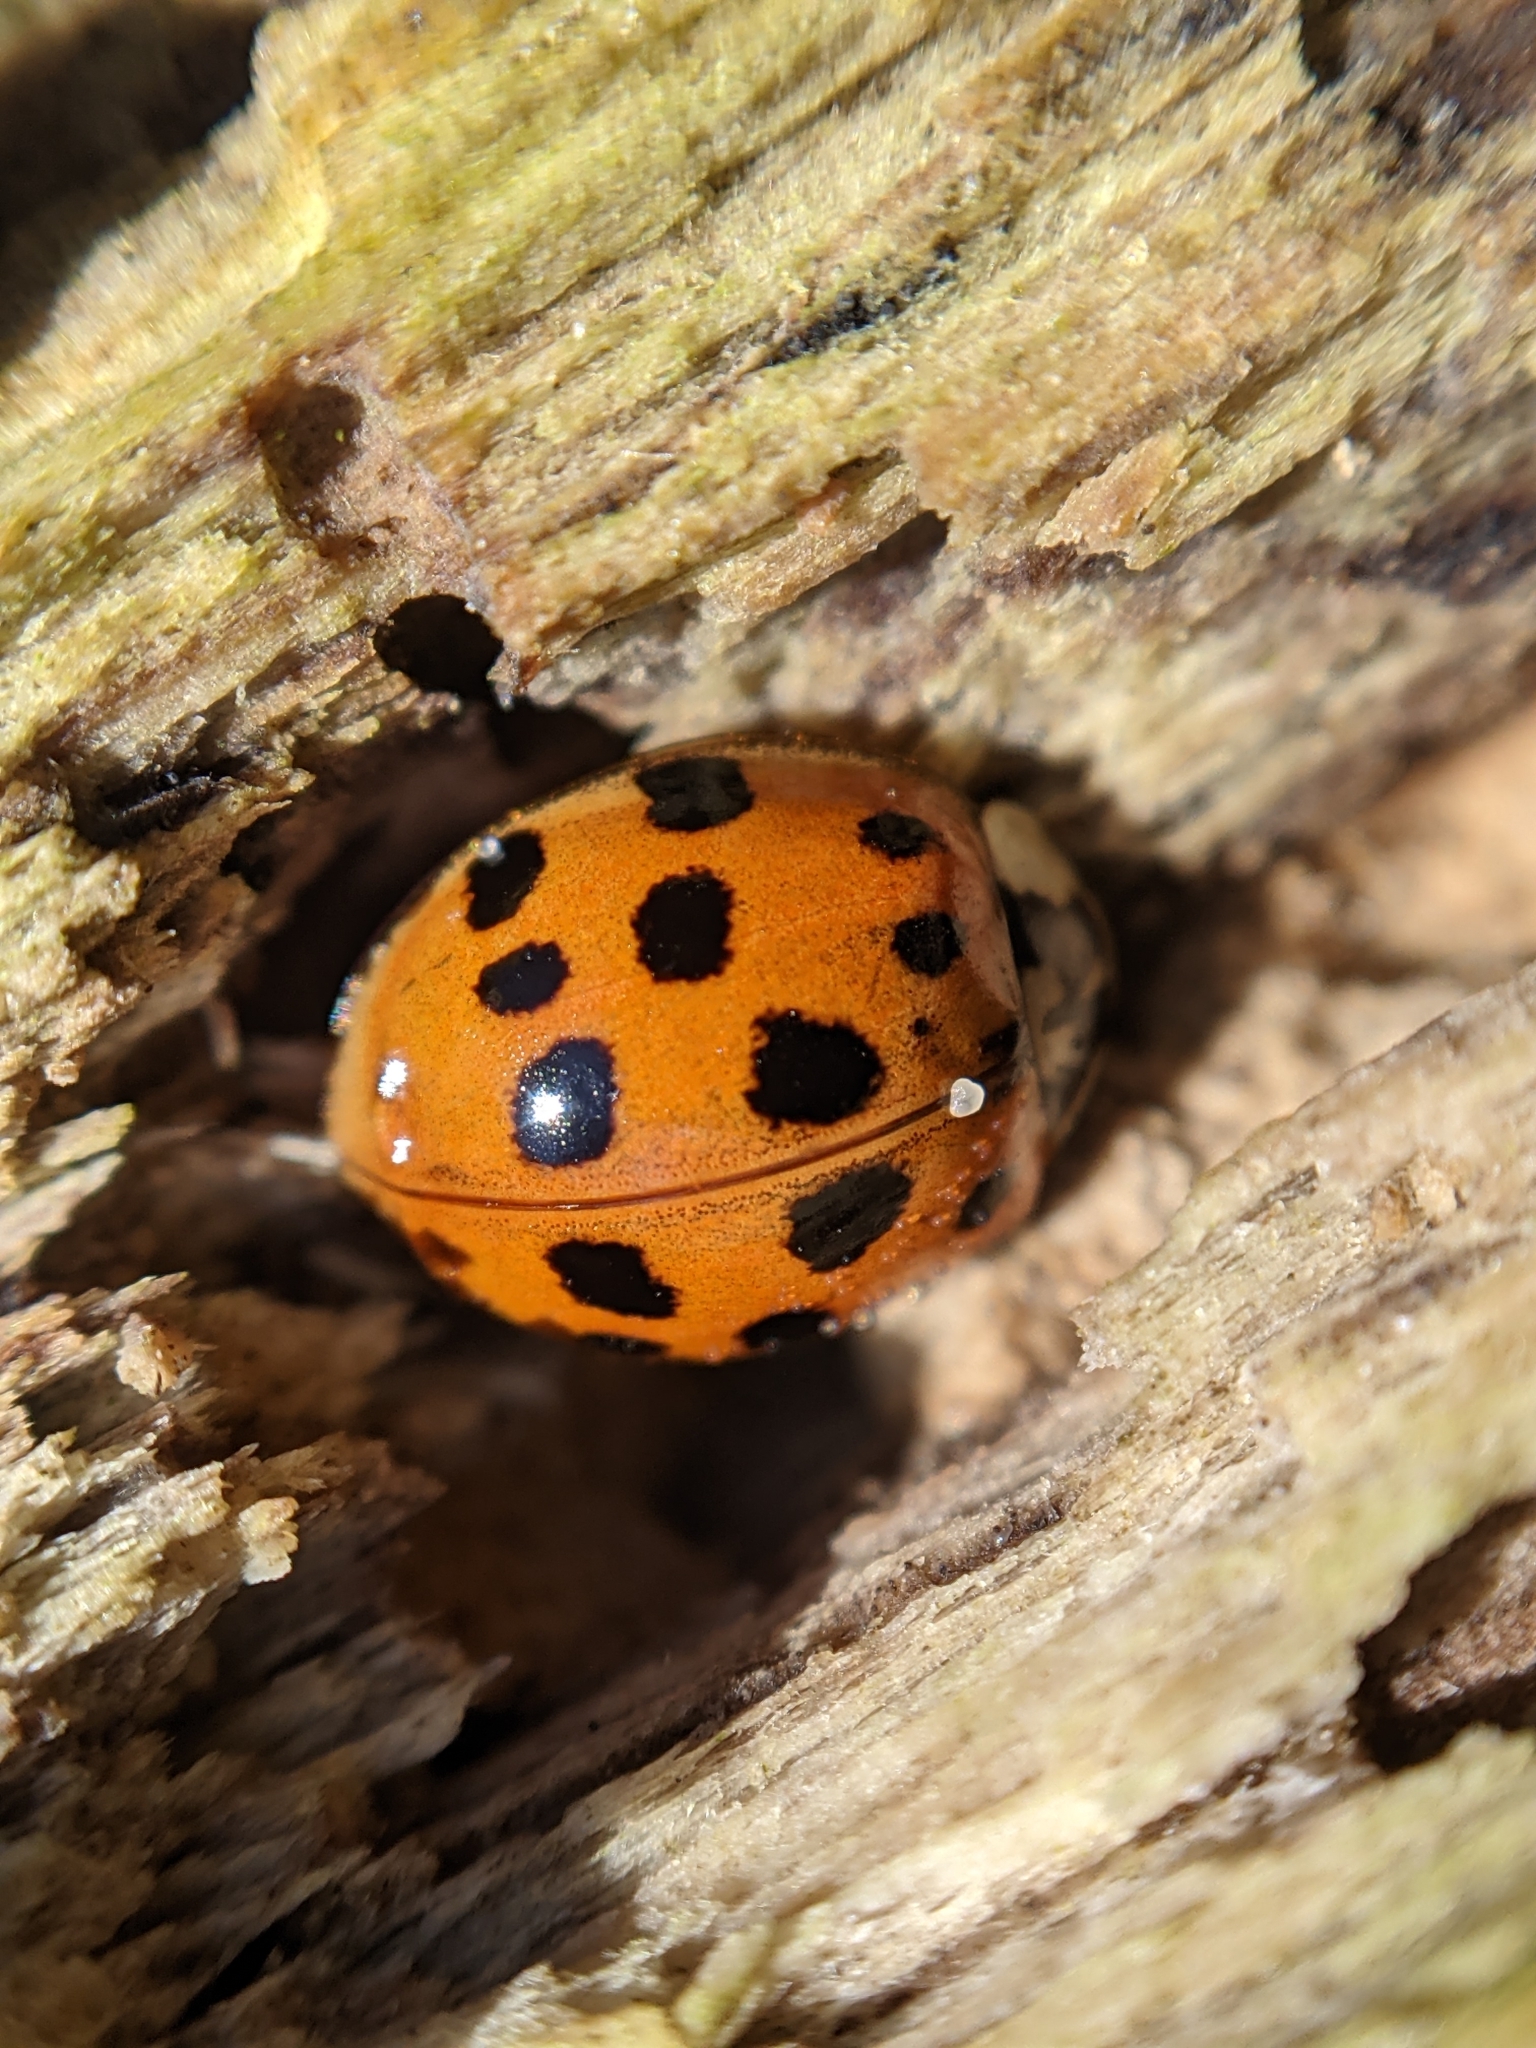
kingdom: Animalia
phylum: Arthropoda
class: Insecta
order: Coleoptera
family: Coccinellidae
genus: Harmonia
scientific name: Harmonia axyridis
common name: Harlequin ladybird
